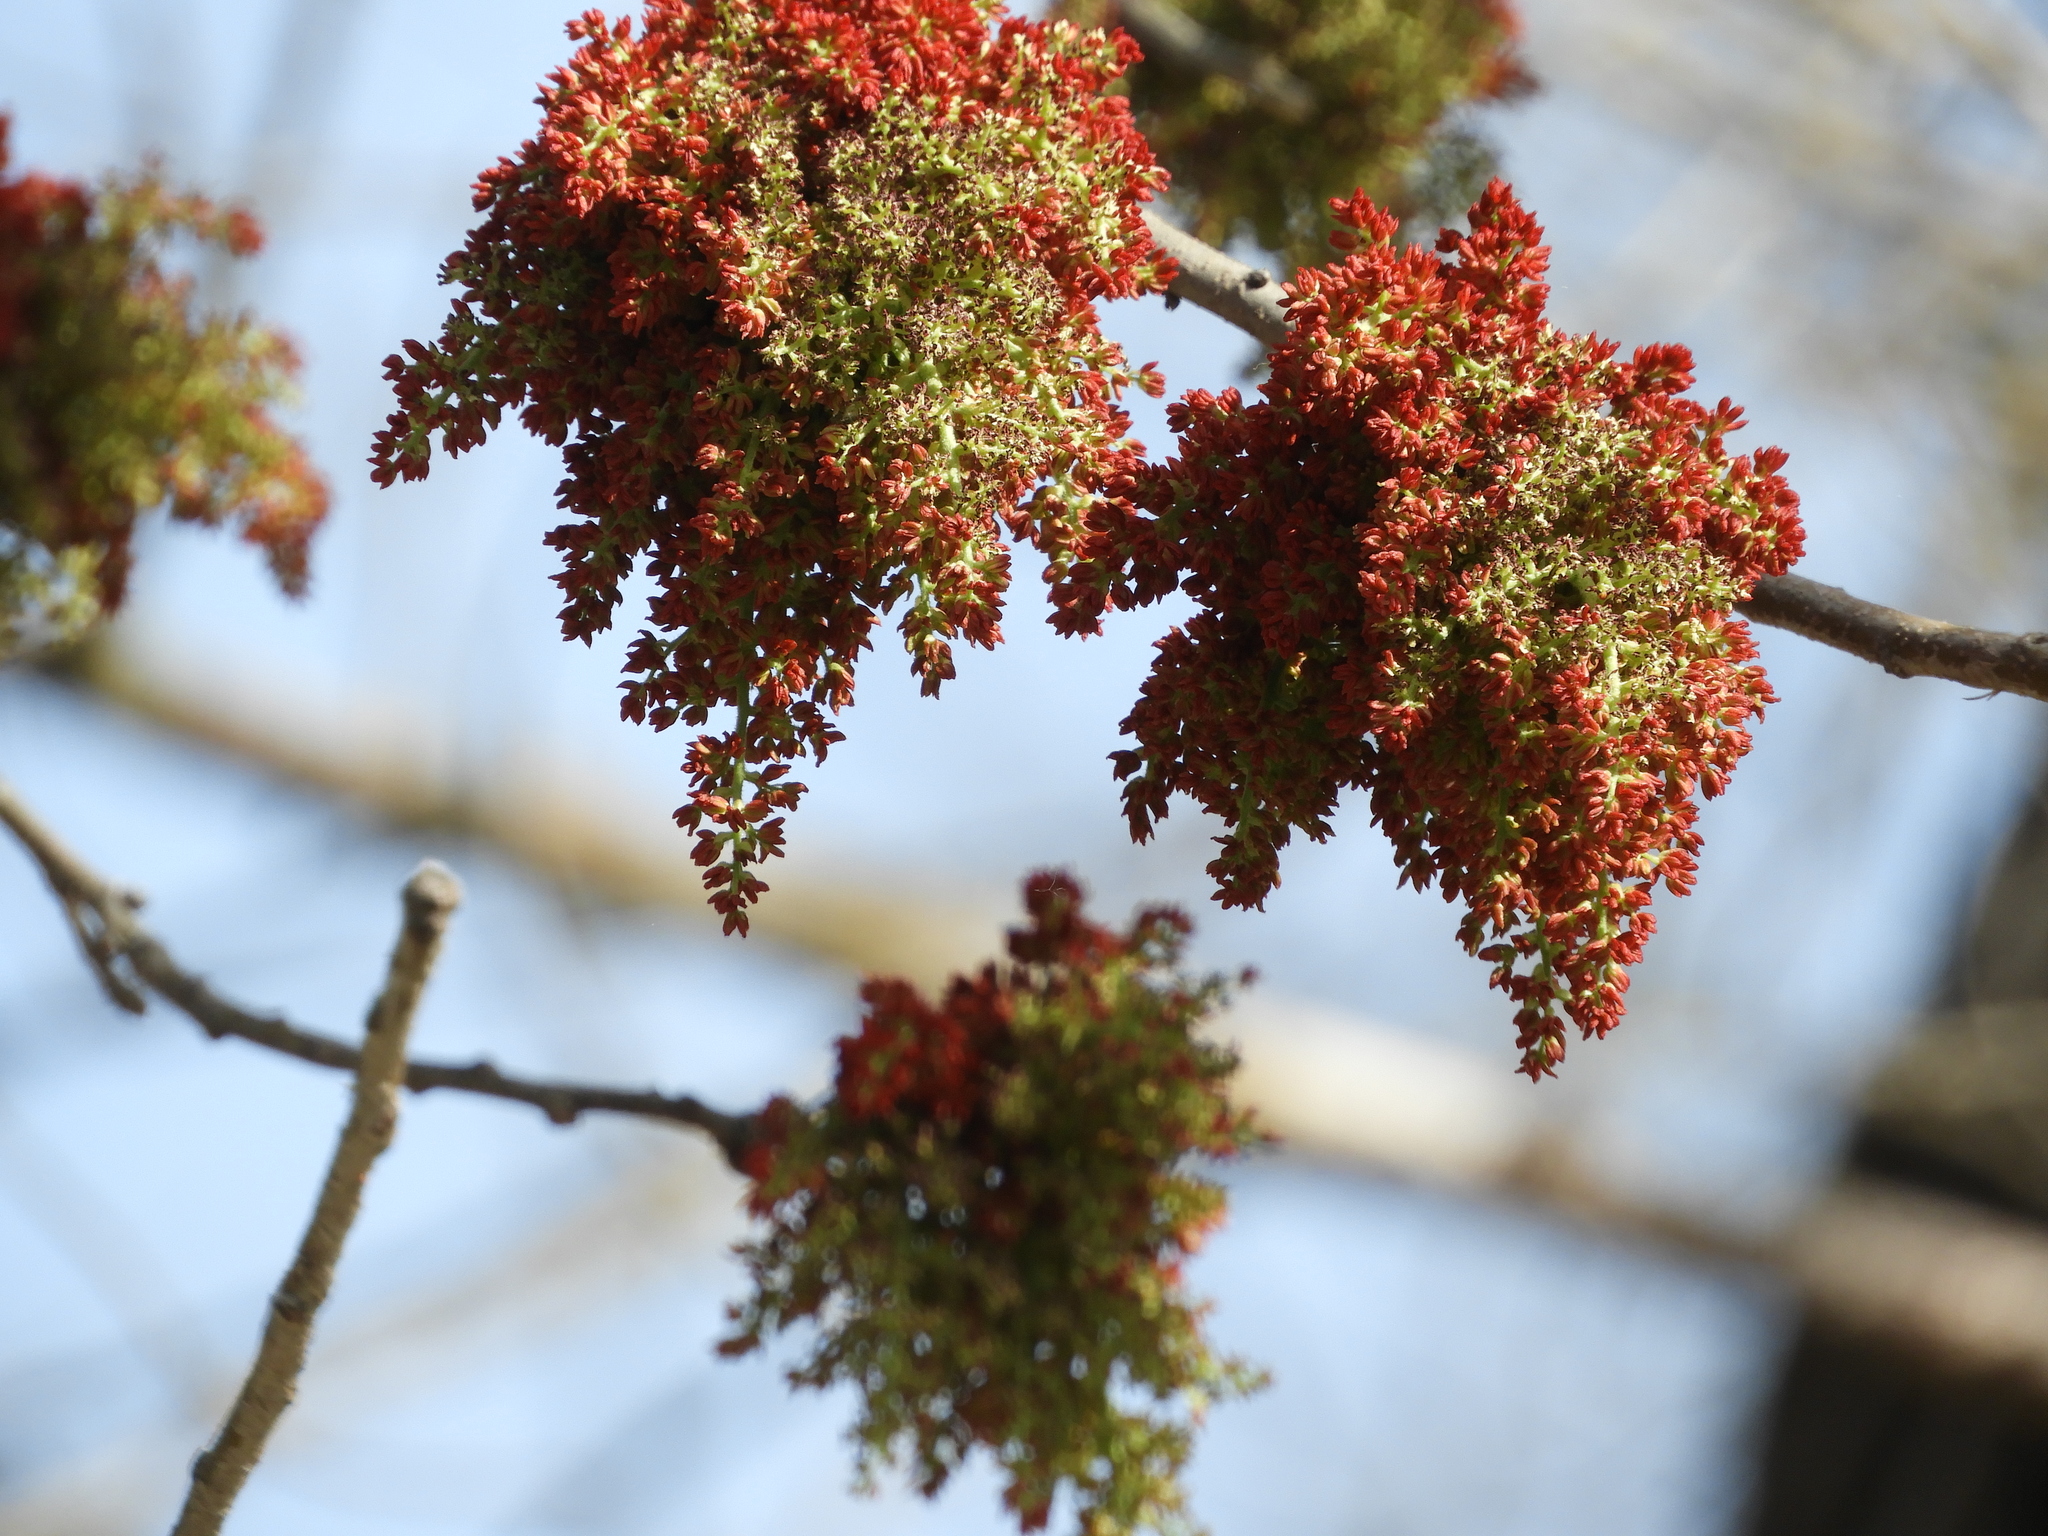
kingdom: Plantae
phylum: Tracheophyta
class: Magnoliopsida
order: Sapindales
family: Anacardiaceae
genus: Pistacia
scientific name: Pistacia chinensis
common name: Chinese pistache
